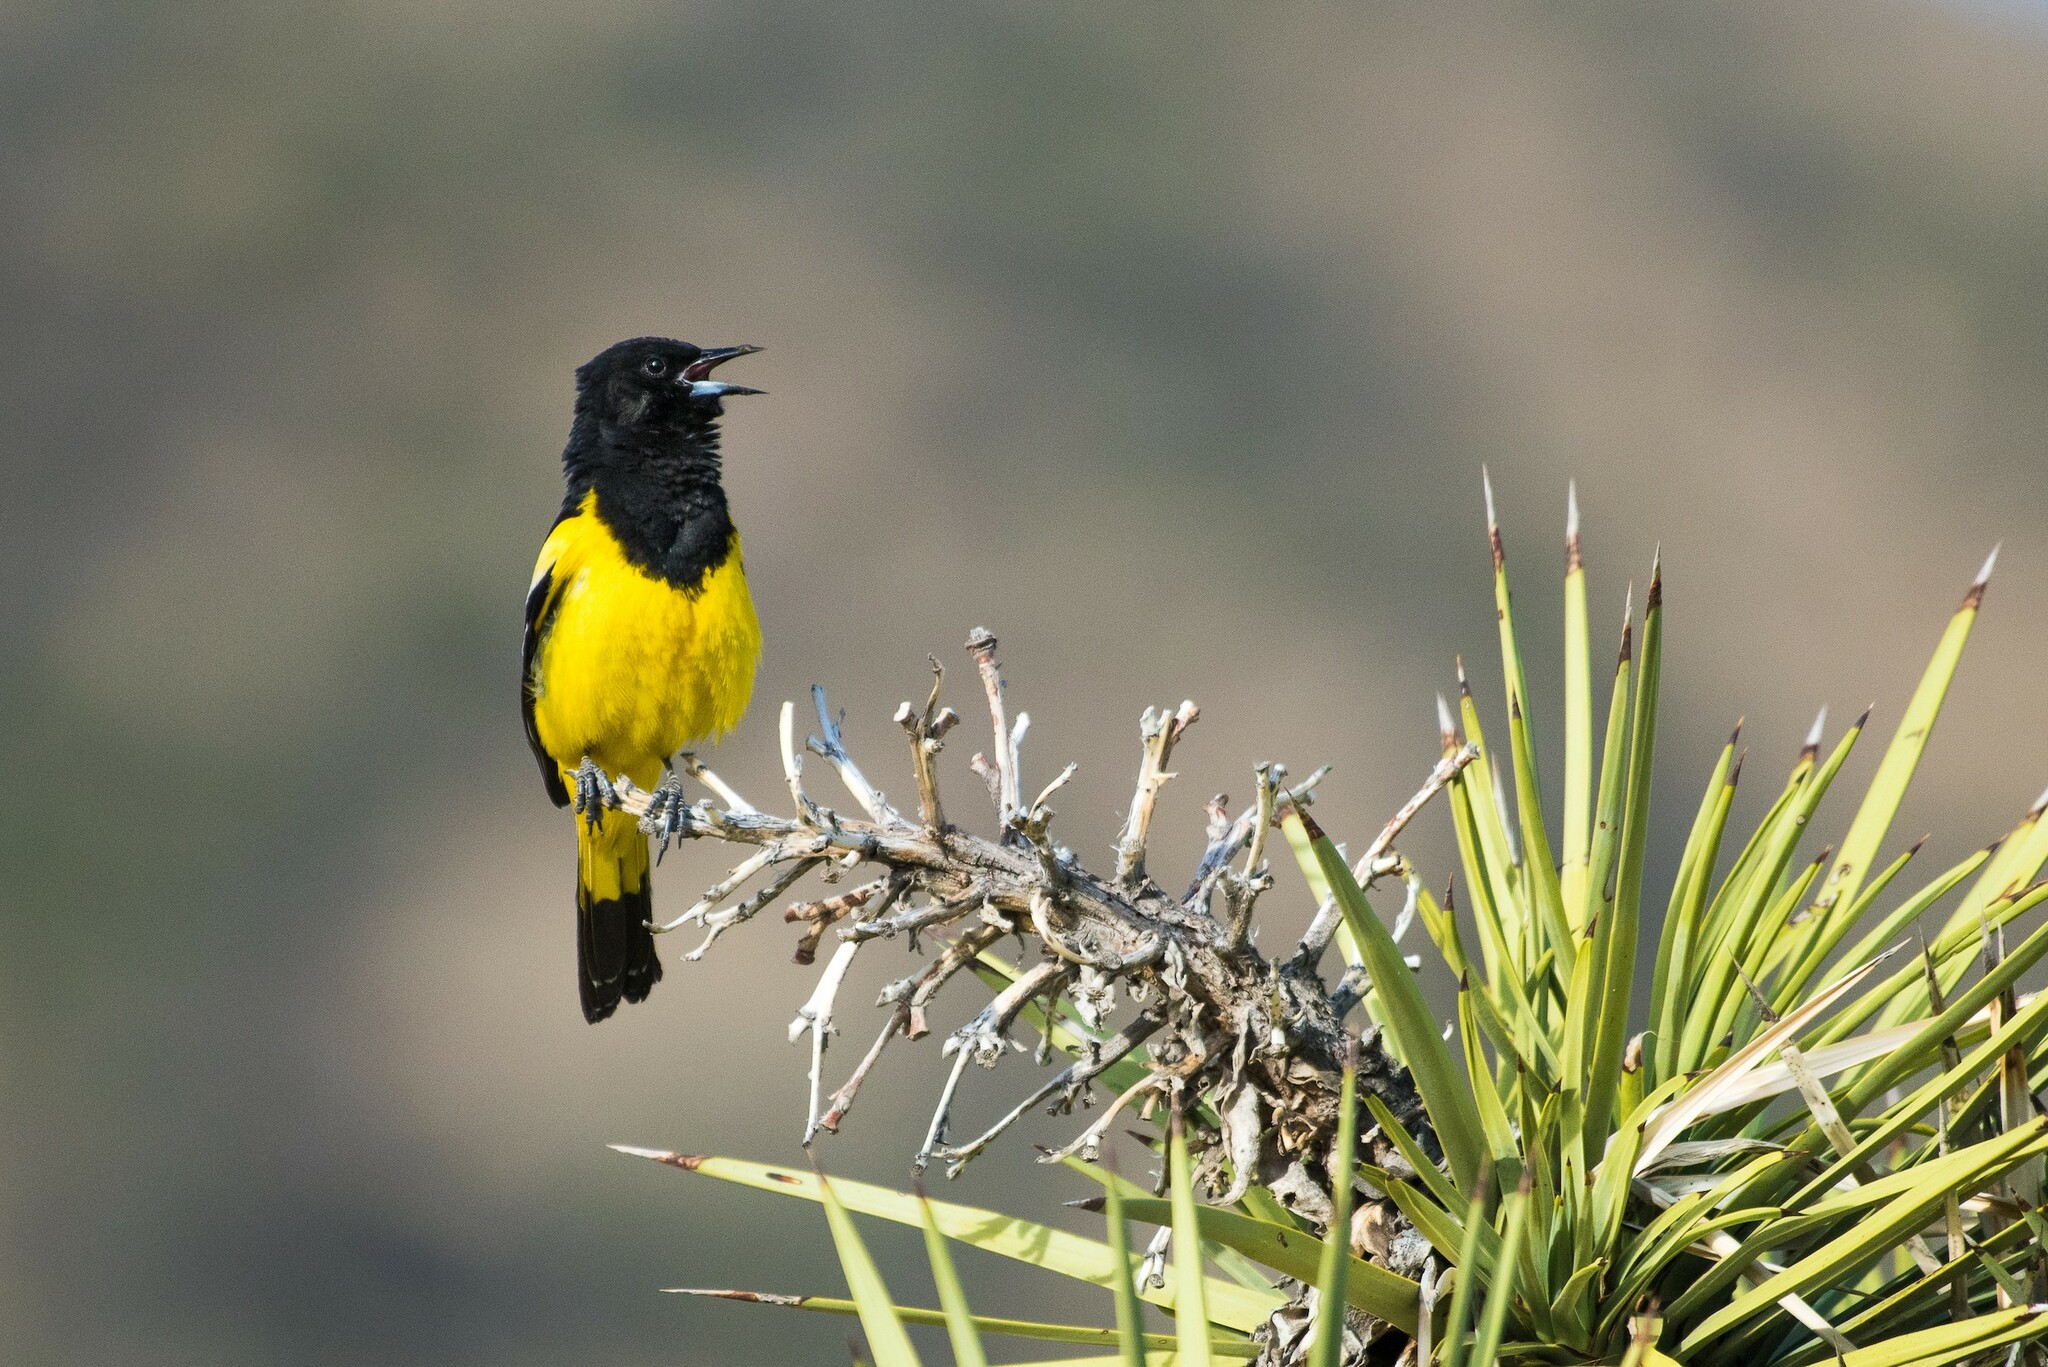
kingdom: Animalia
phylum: Chordata
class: Aves
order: Passeriformes
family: Icteridae
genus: Icterus
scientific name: Icterus parisorum
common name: Scott's oriole
